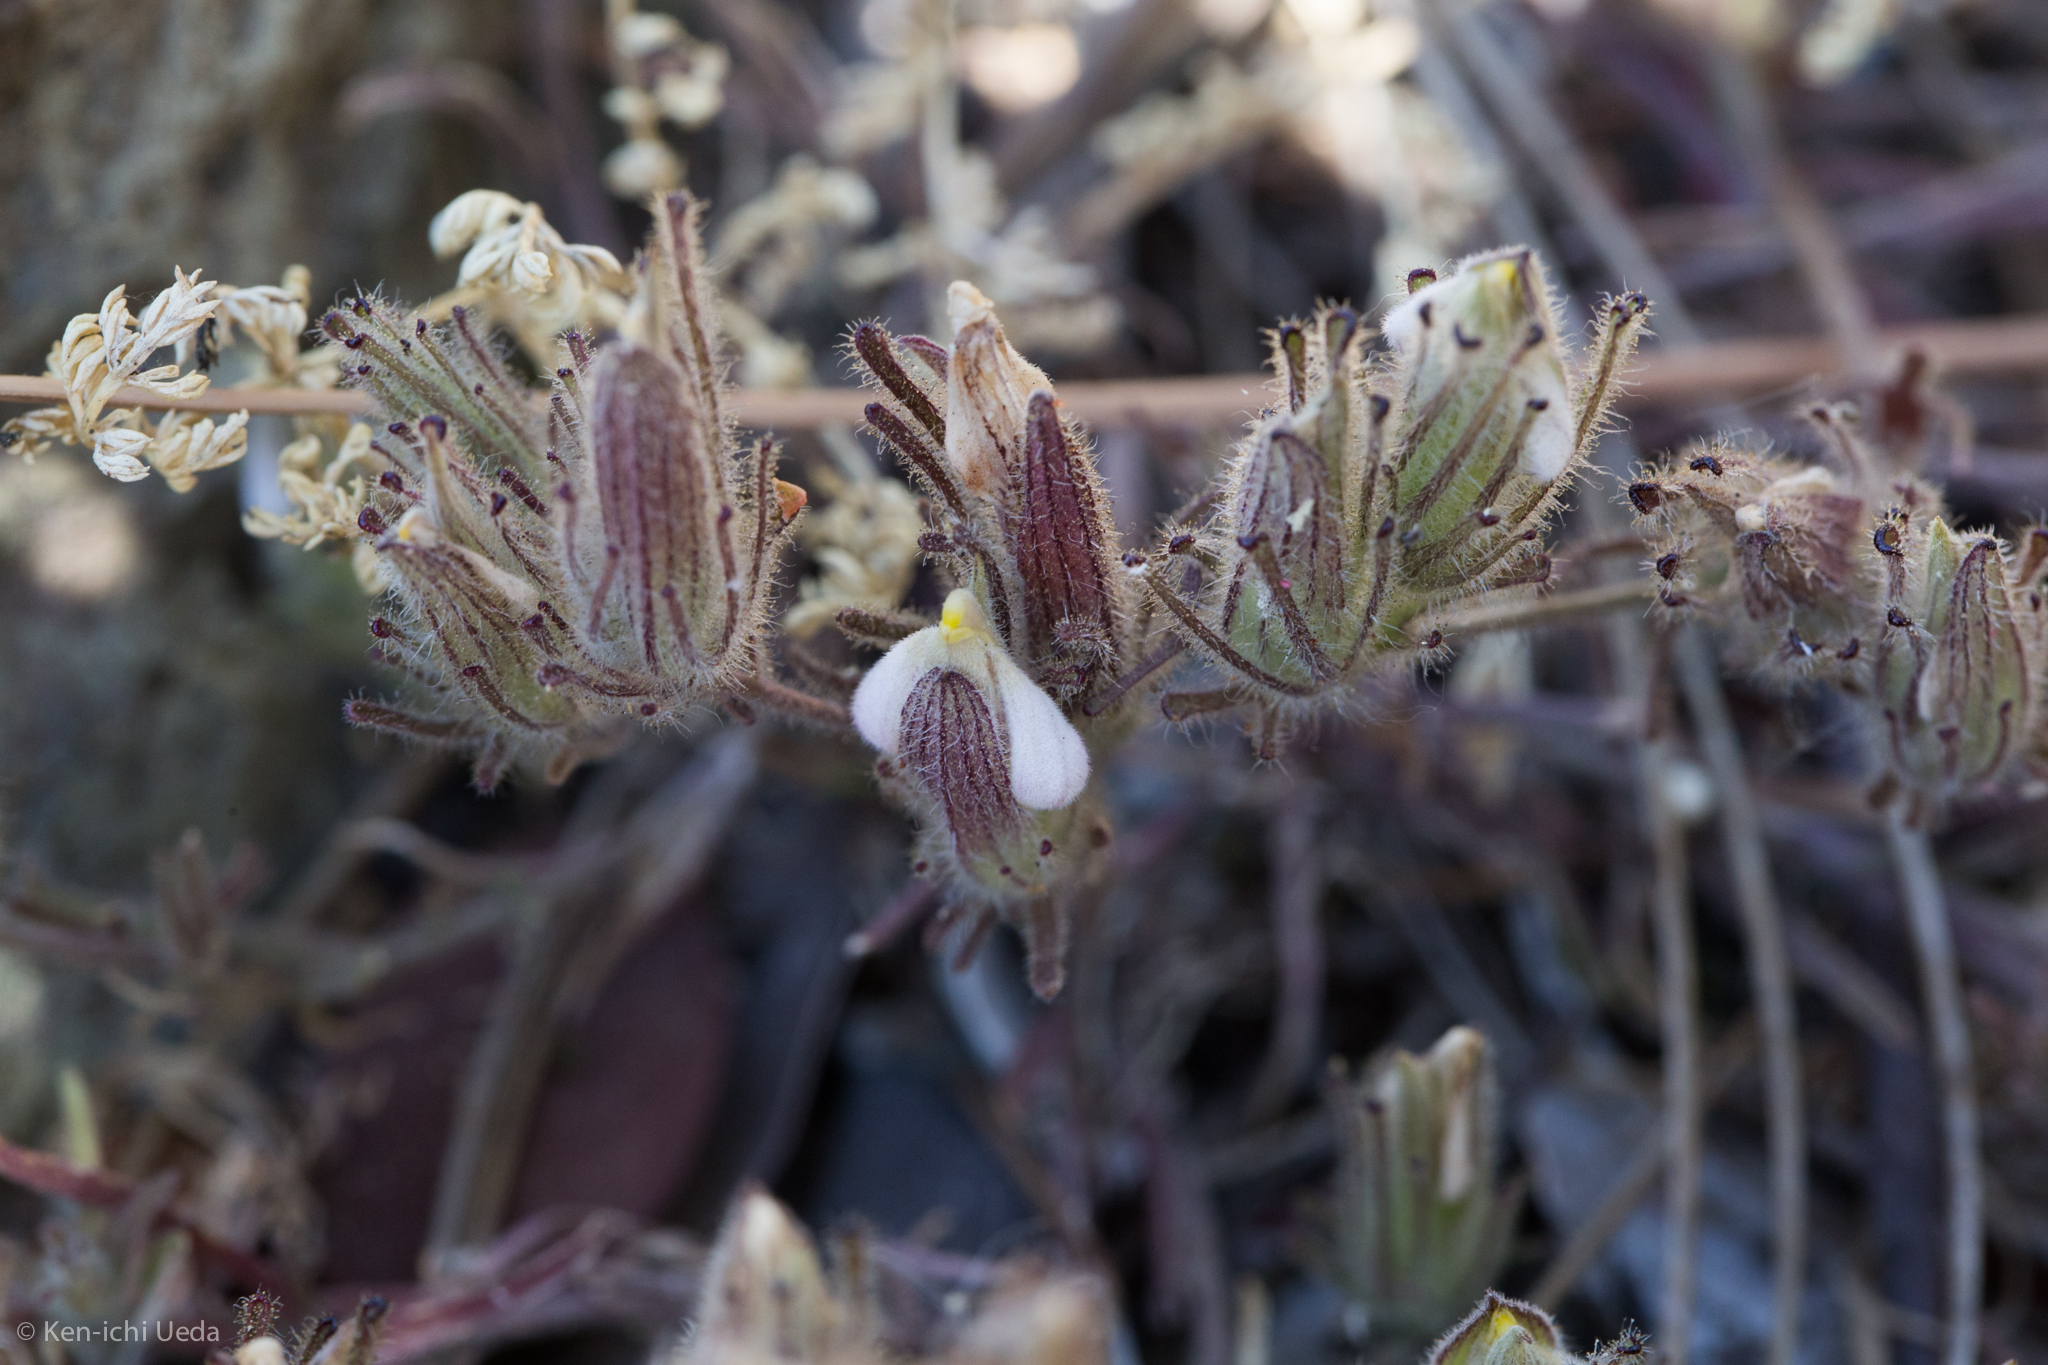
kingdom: Plantae
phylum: Tracheophyta
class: Magnoliopsida
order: Lamiales
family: Orobanchaceae
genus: Cordylanthus
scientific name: Cordylanthus nidularius
